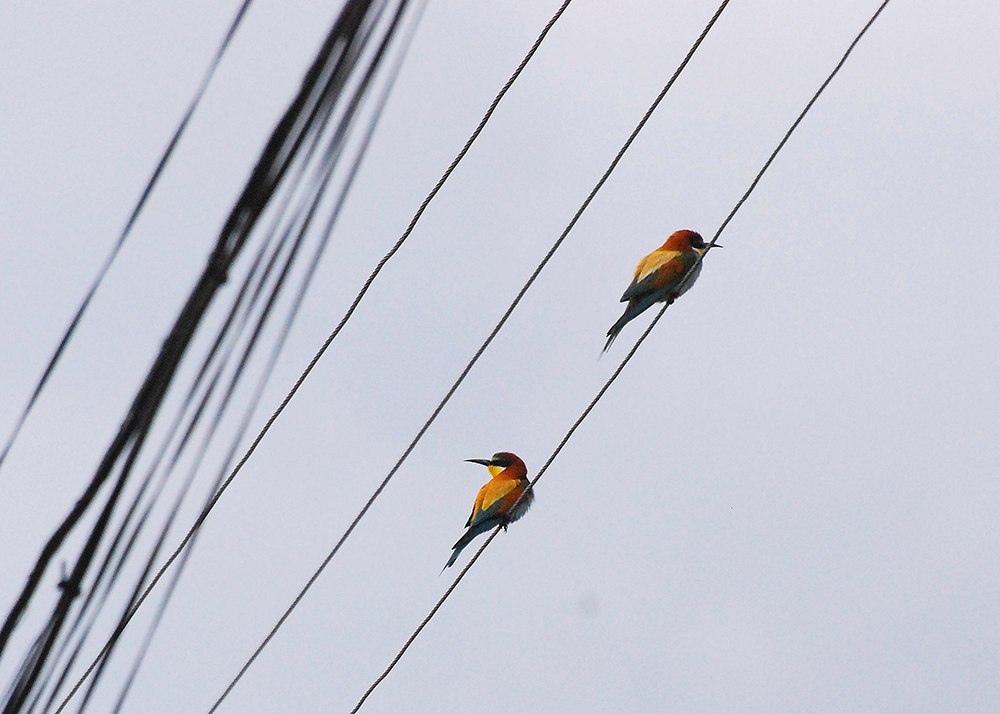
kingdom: Animalia
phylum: Chordata
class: Aves
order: Coraciiformes
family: Meropidae
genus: Merops
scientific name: Merops apiaster
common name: European bee-eater
